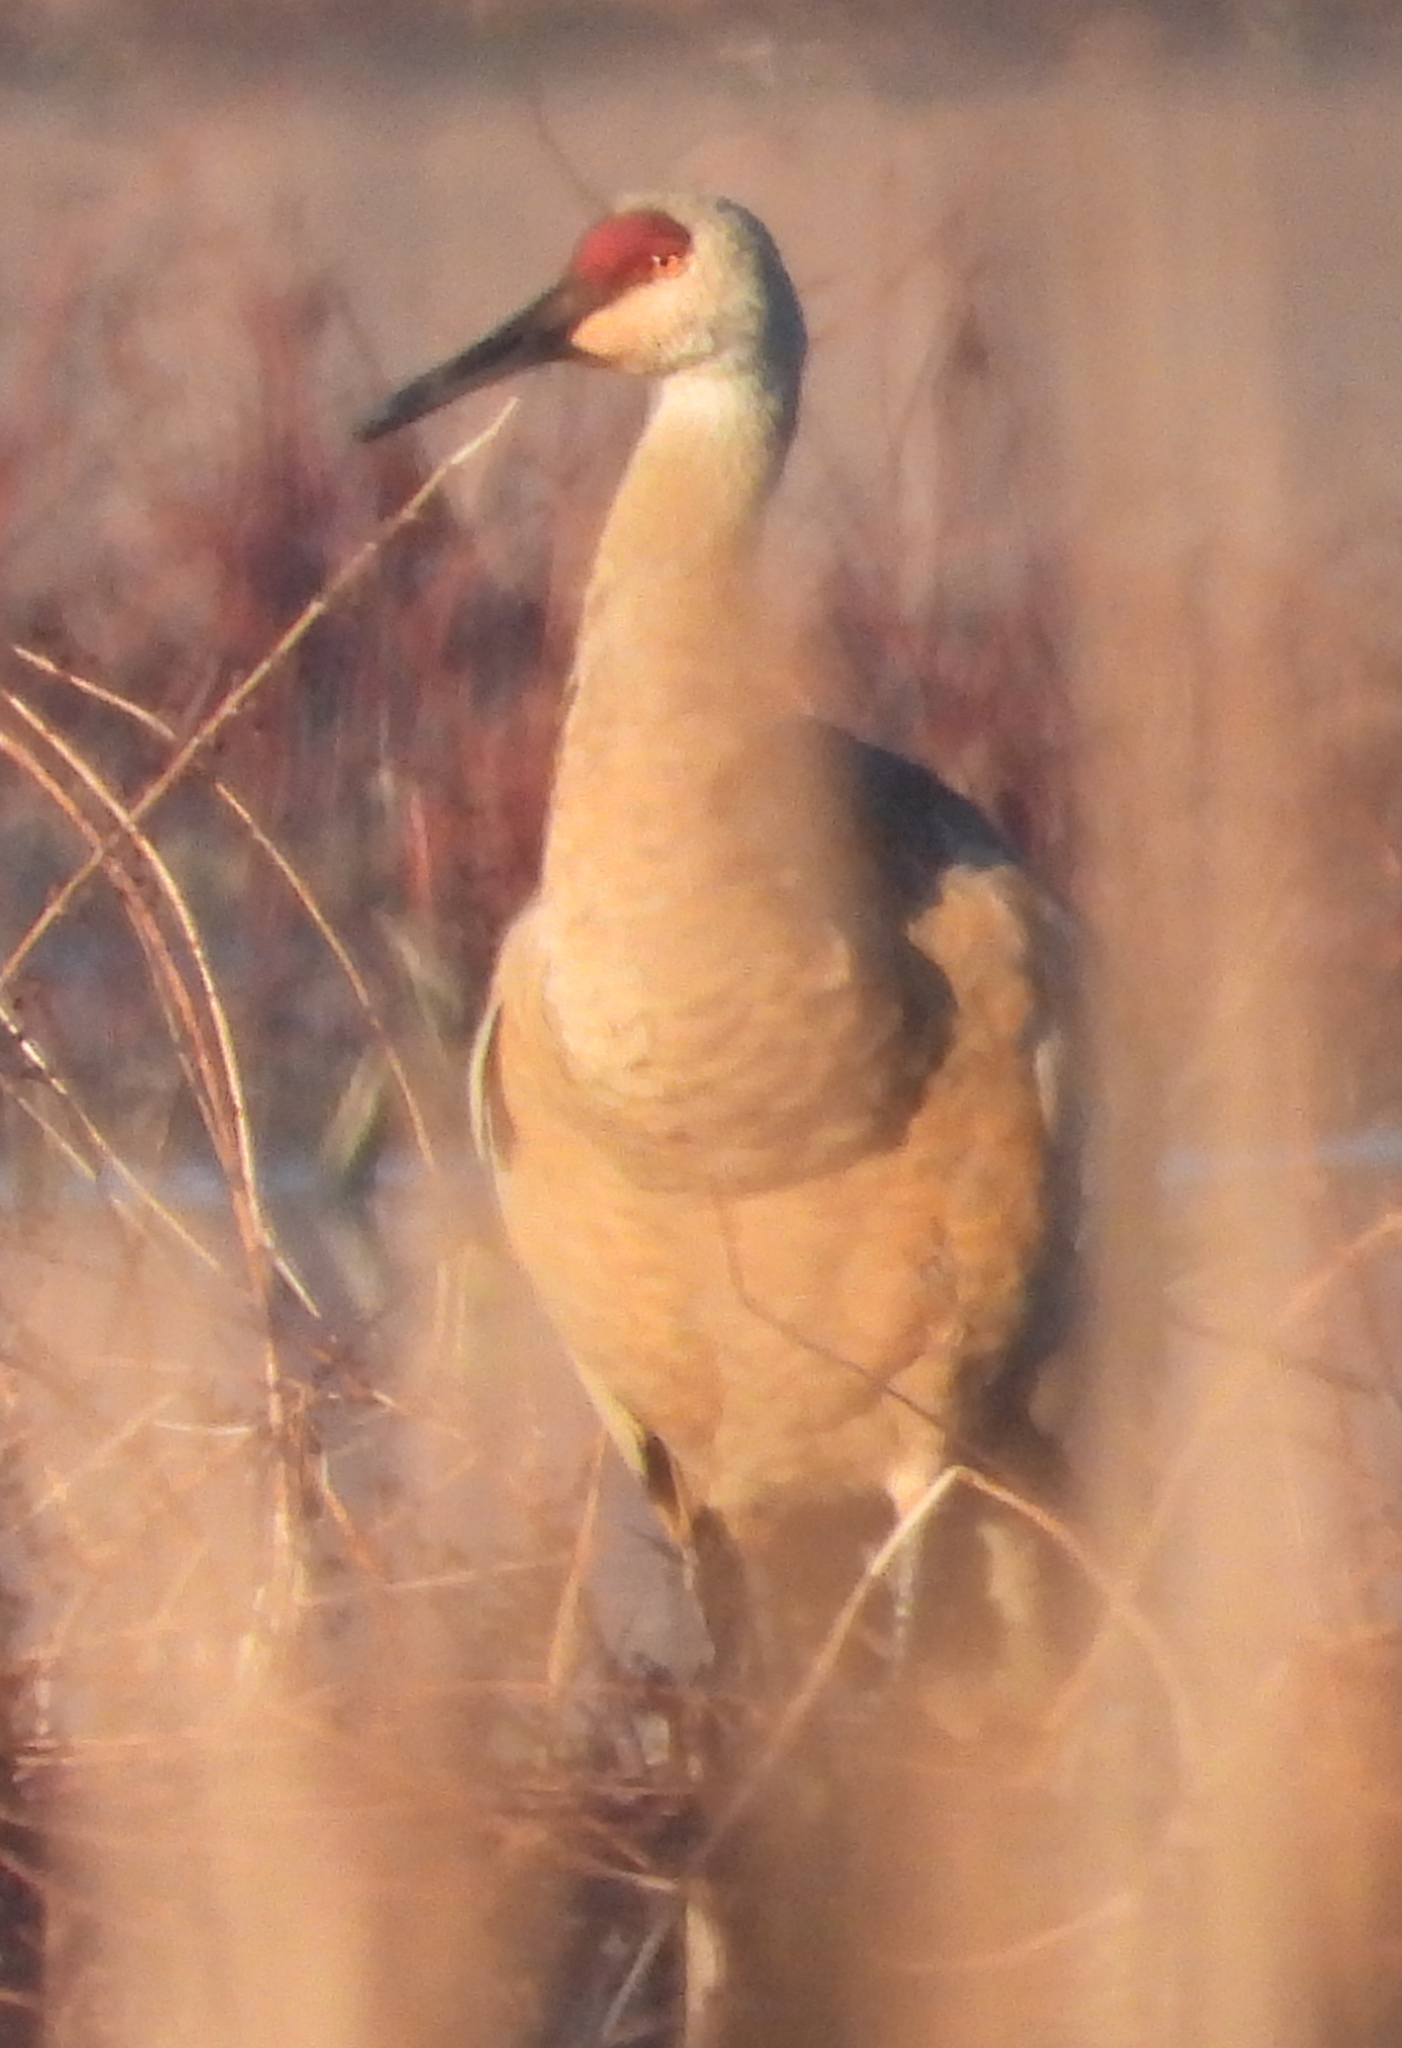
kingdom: Animalia
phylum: Chordata
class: Aves
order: Gruiformes
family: Gruidae
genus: Grus
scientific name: Grus canadensis
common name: Sandhill crane
